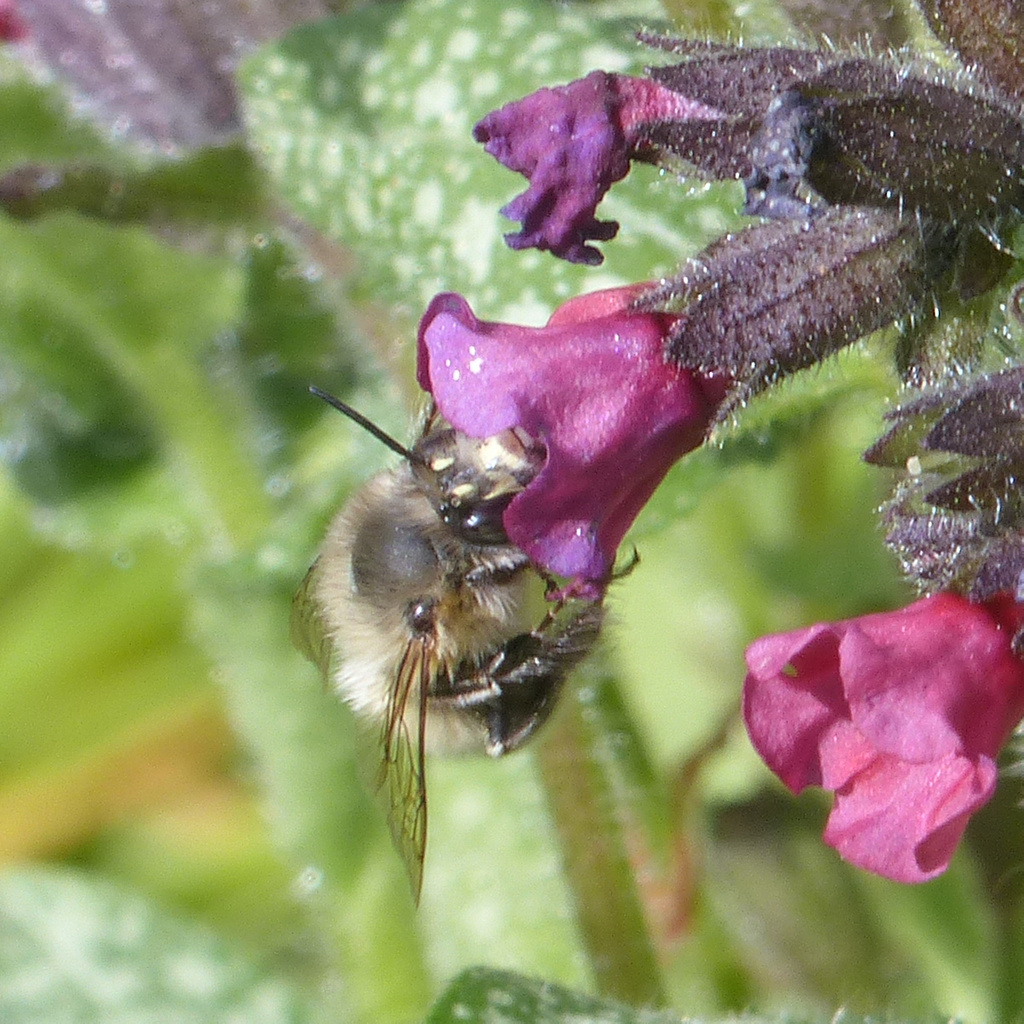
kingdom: Animalia
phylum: Arthropoda
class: Insecta
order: Hymenoptera
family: Apidae
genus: Anthophora
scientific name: Anthophora plumipes
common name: Hairy-footed flower bee
